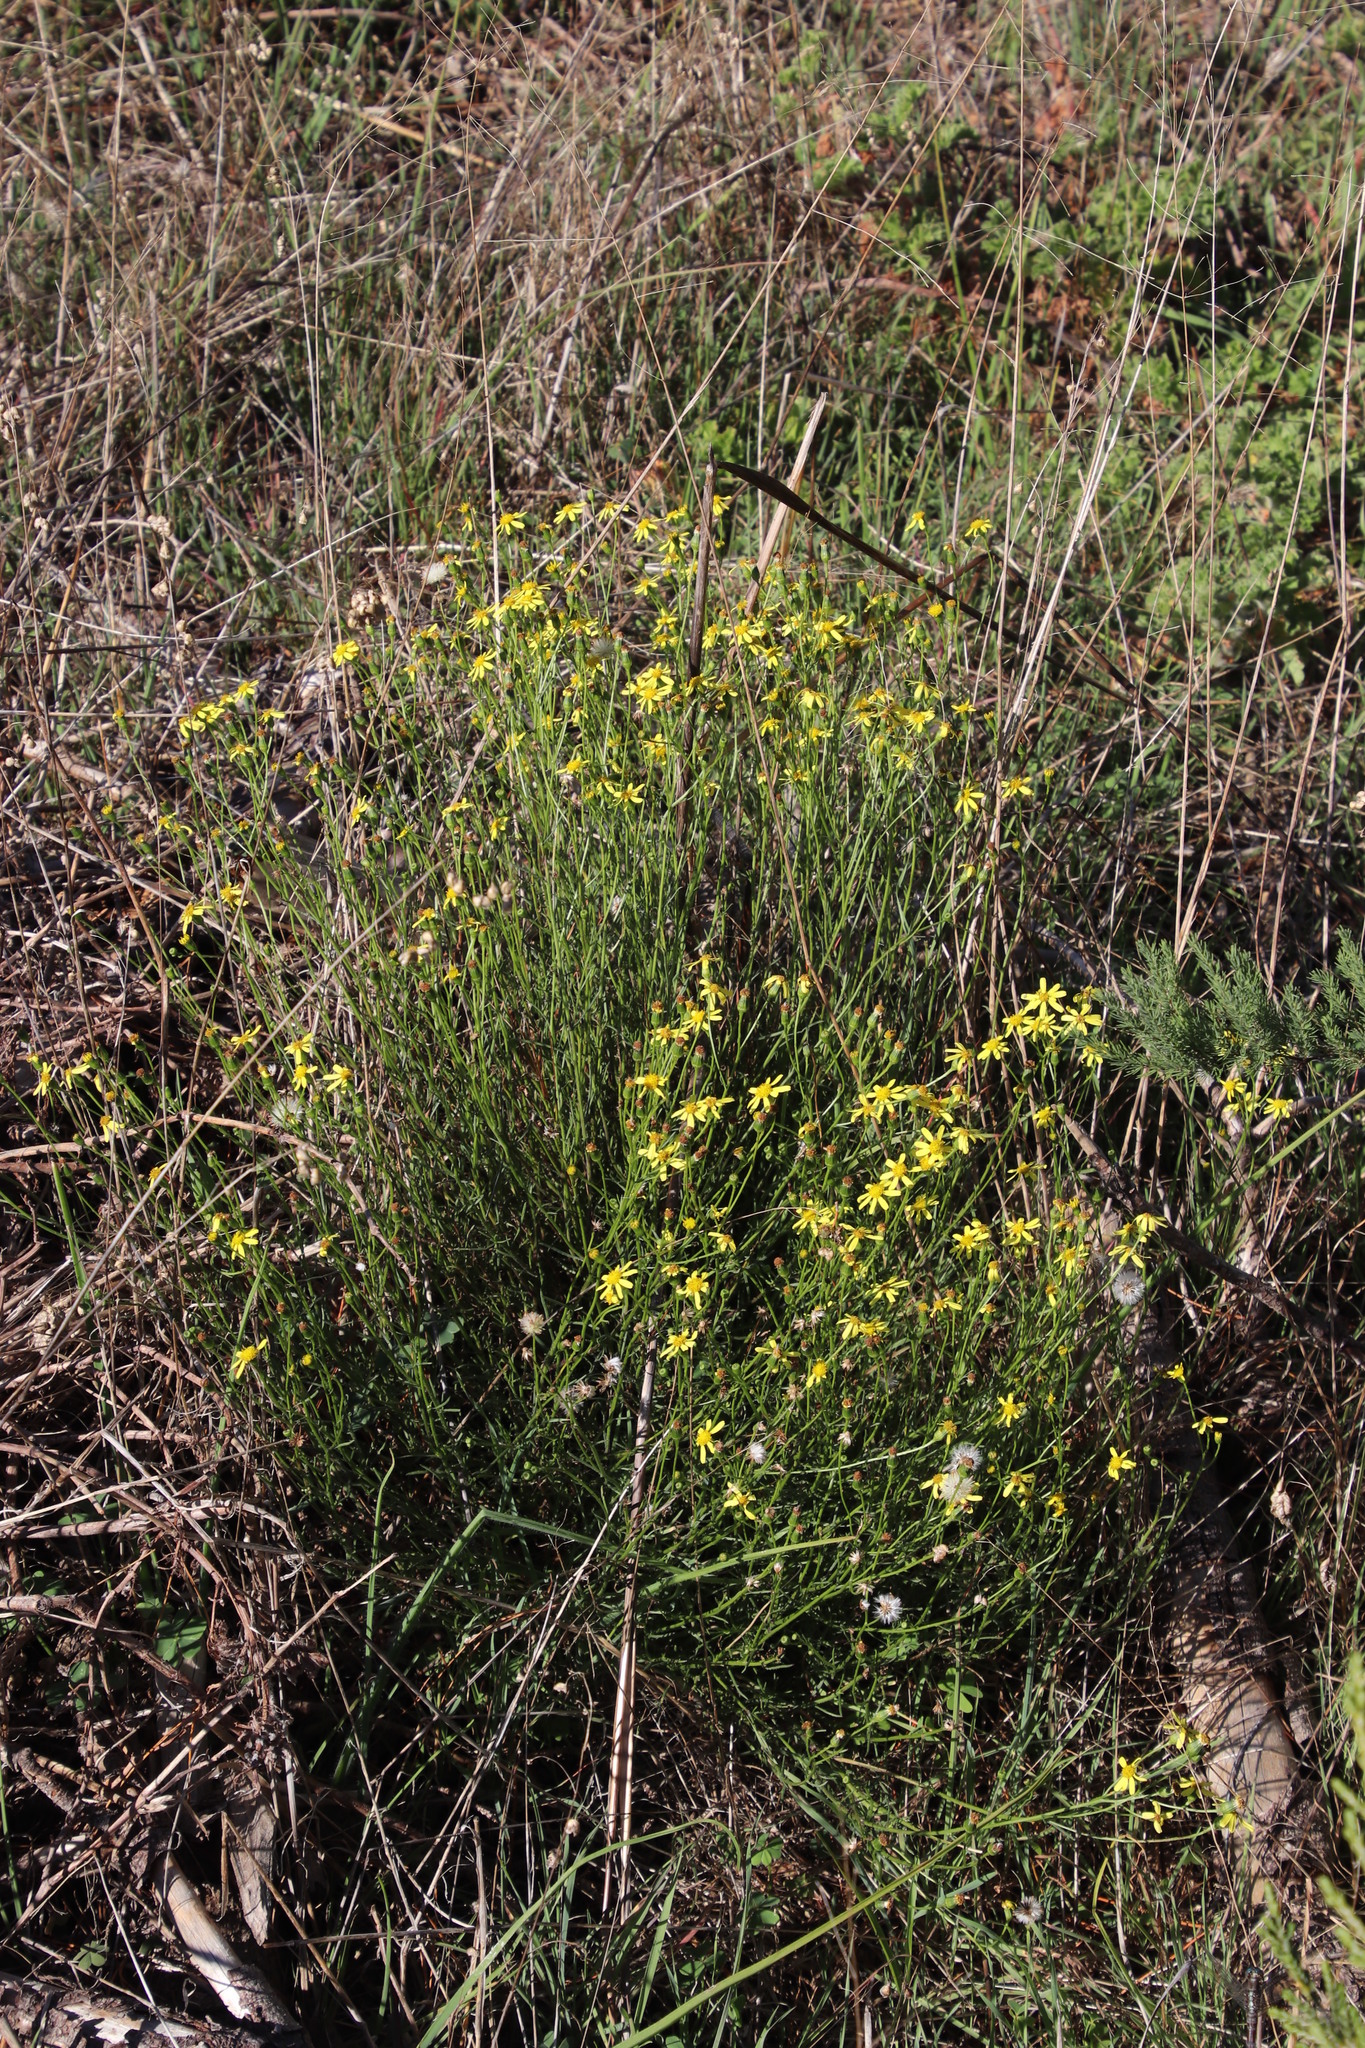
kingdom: Plantae
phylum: Tracheophyta
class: Magnoliopsida
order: Asterales
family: Asteraceae
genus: Senecio
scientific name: Senecio burchellii
